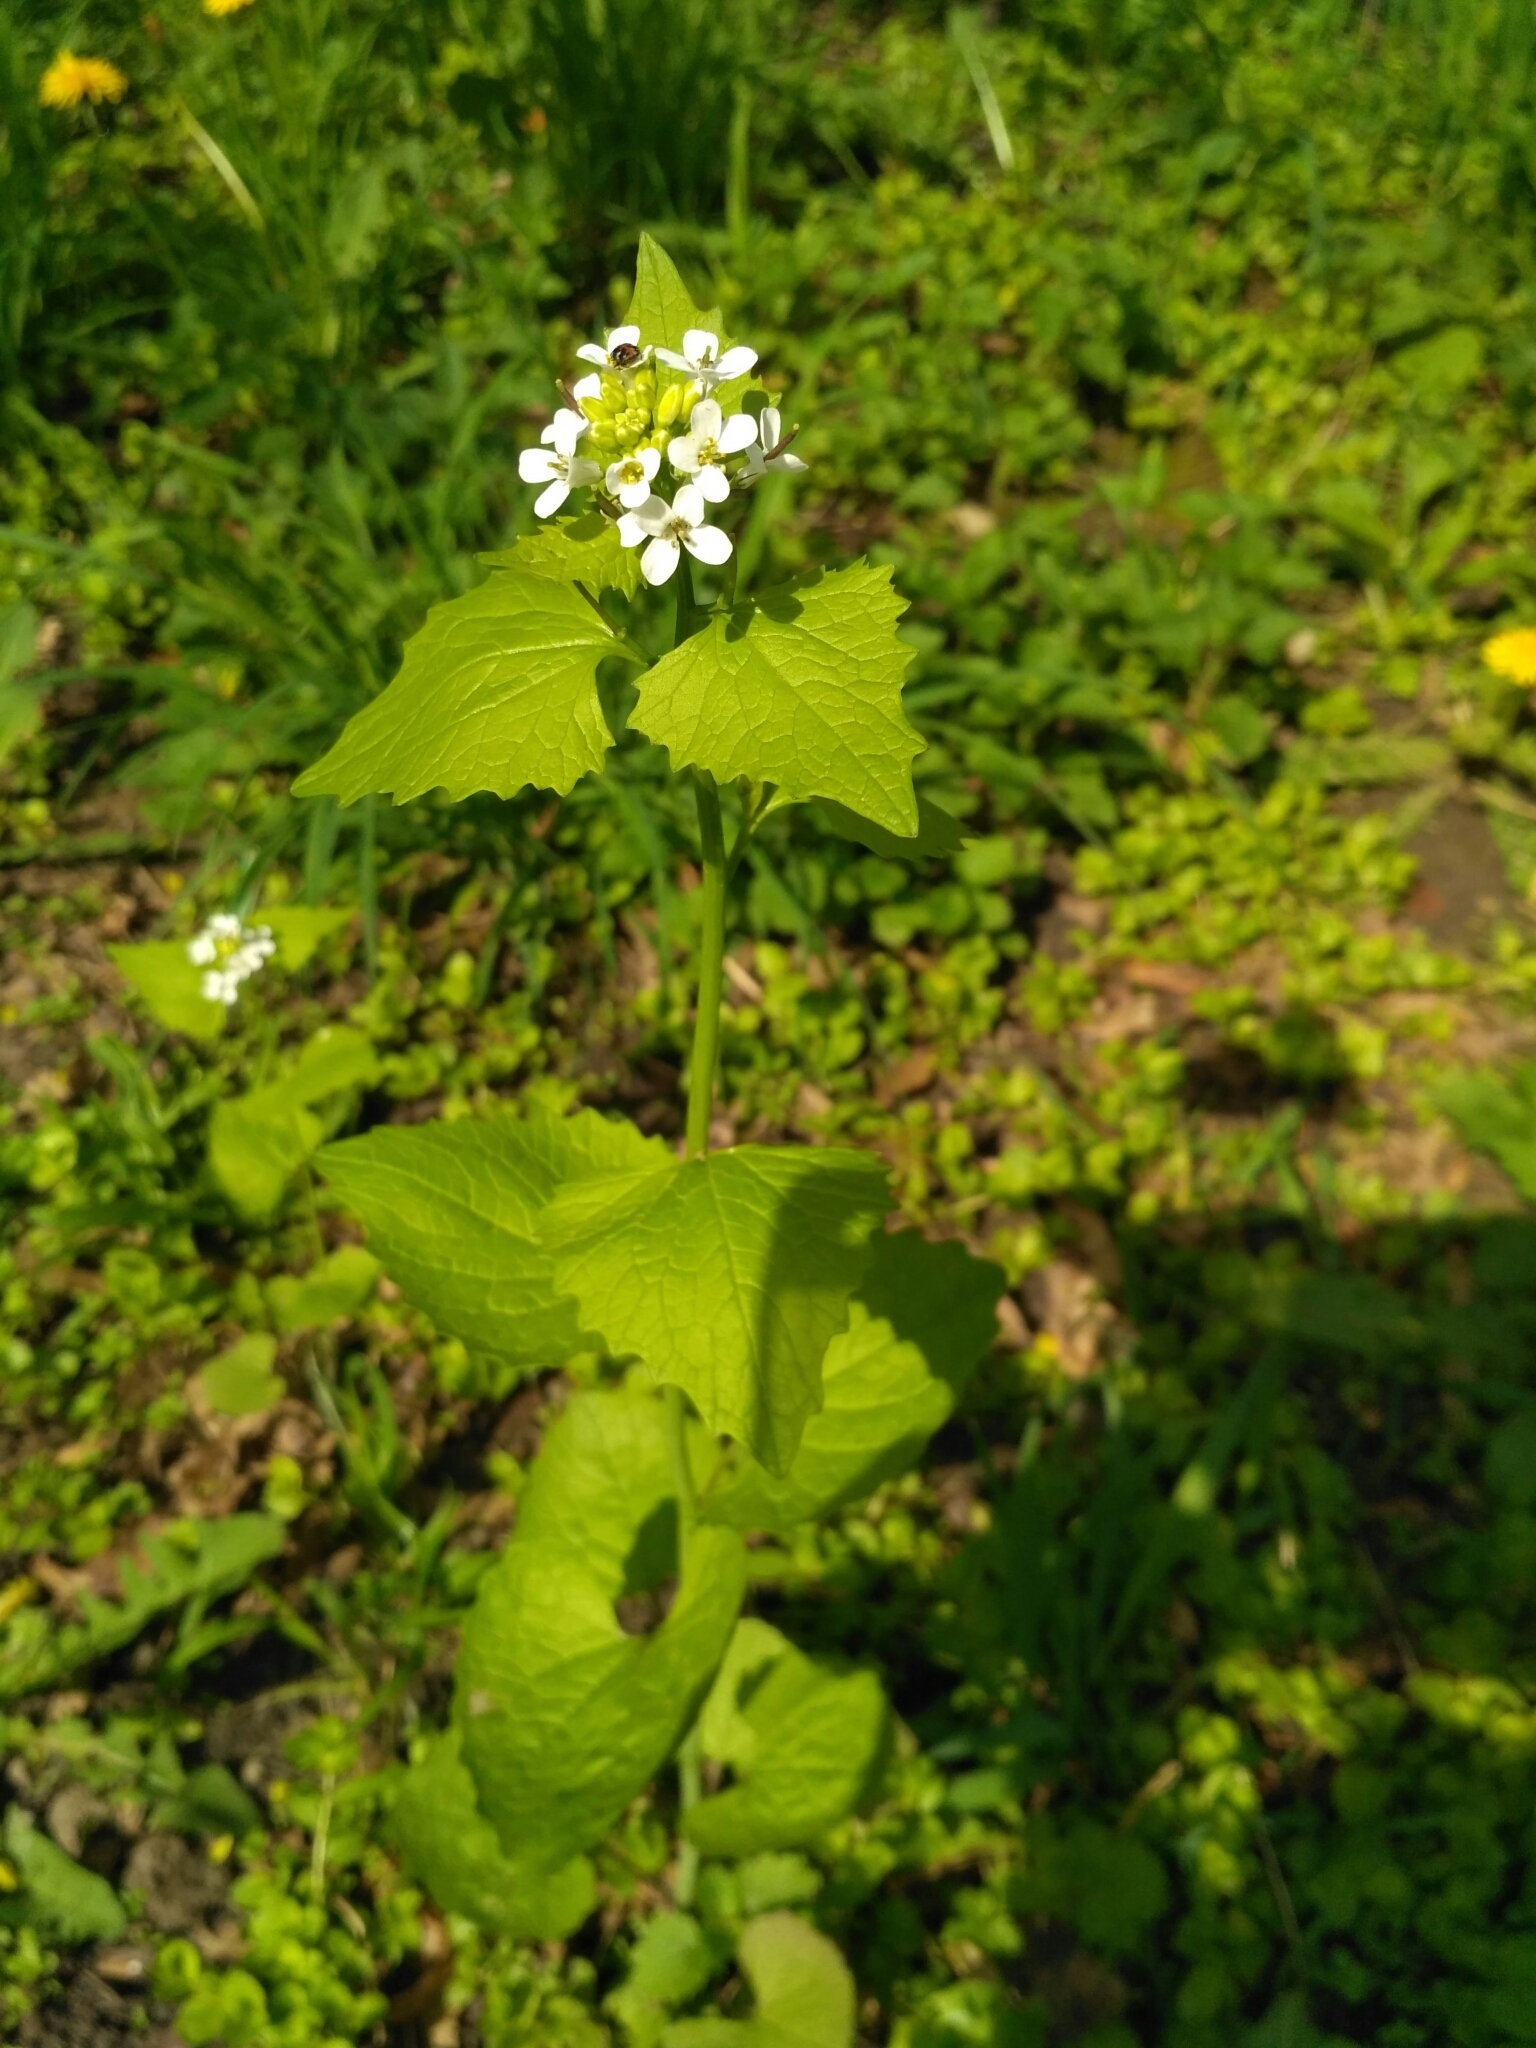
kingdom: Plantae
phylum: Tracheophyta
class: Magnoliopsida
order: Brassicales
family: Brassicaceae
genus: Alliaria
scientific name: Alliaria petiolata
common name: Garlic mustard
